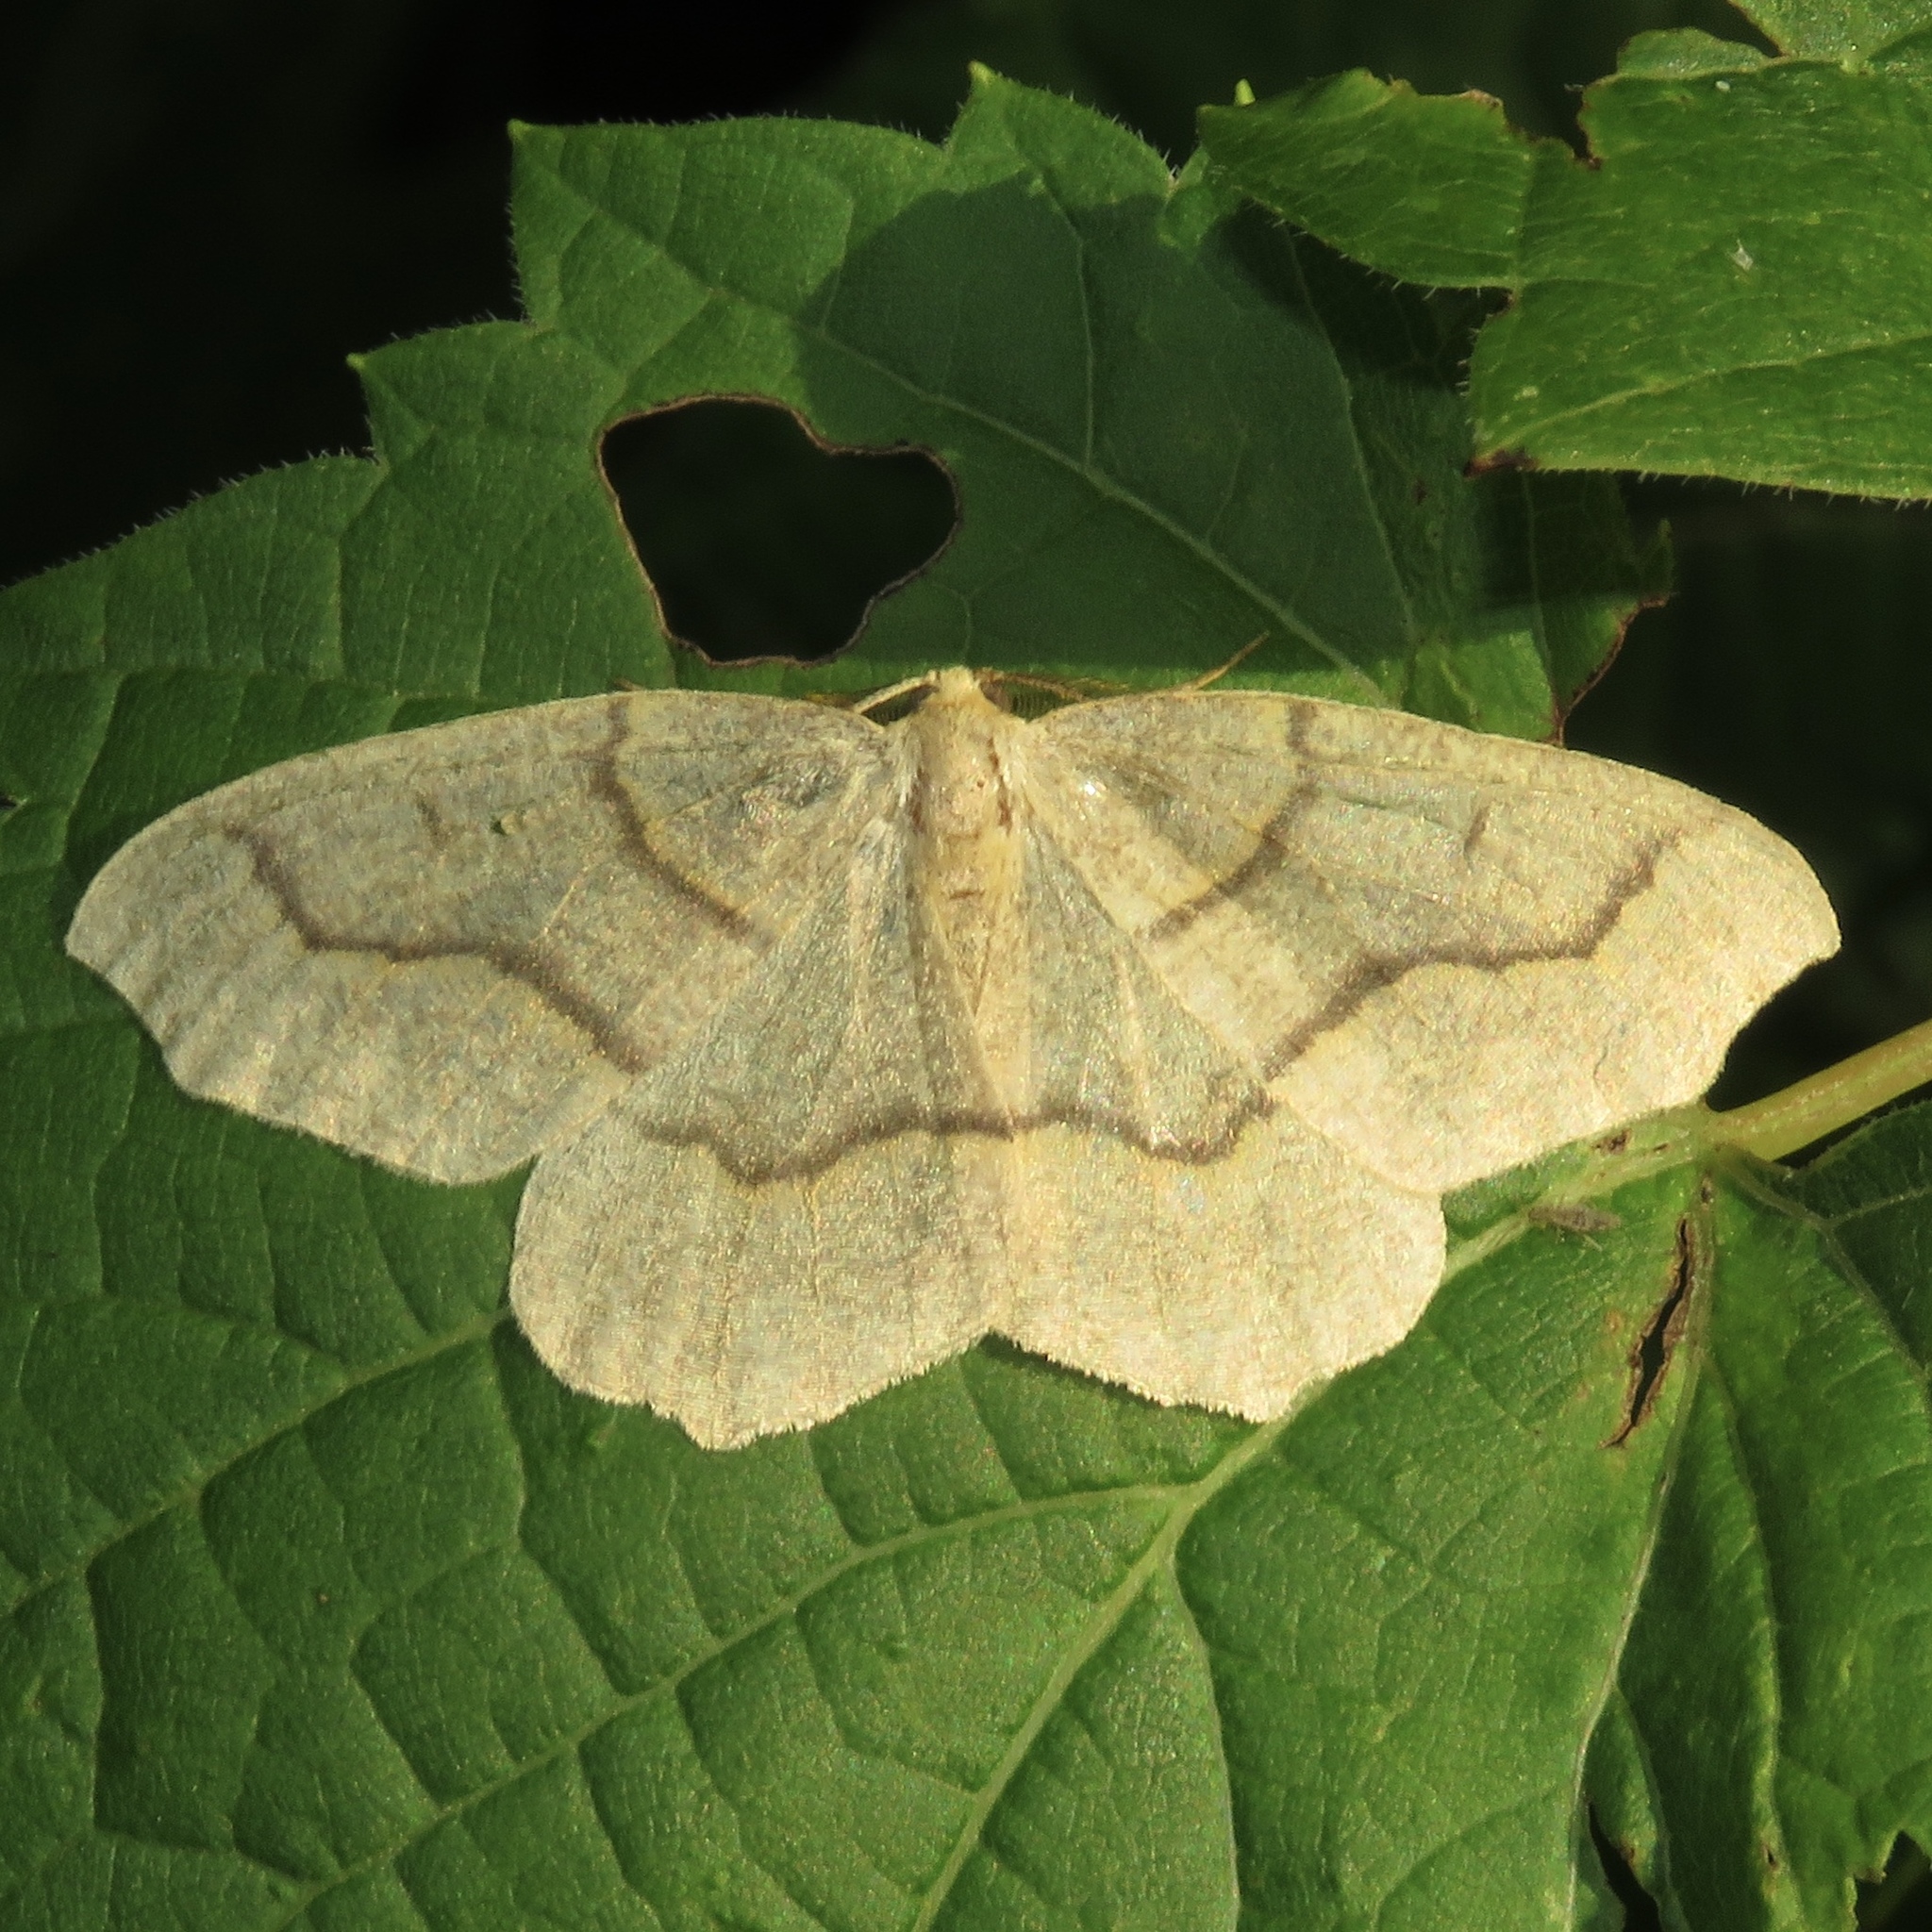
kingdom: Animalia
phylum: Arthropoda
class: Insecta
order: Lepidoptera
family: Geometridae
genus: Lambdina
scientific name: Lambdina fiscellaria
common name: Hemlock looper
